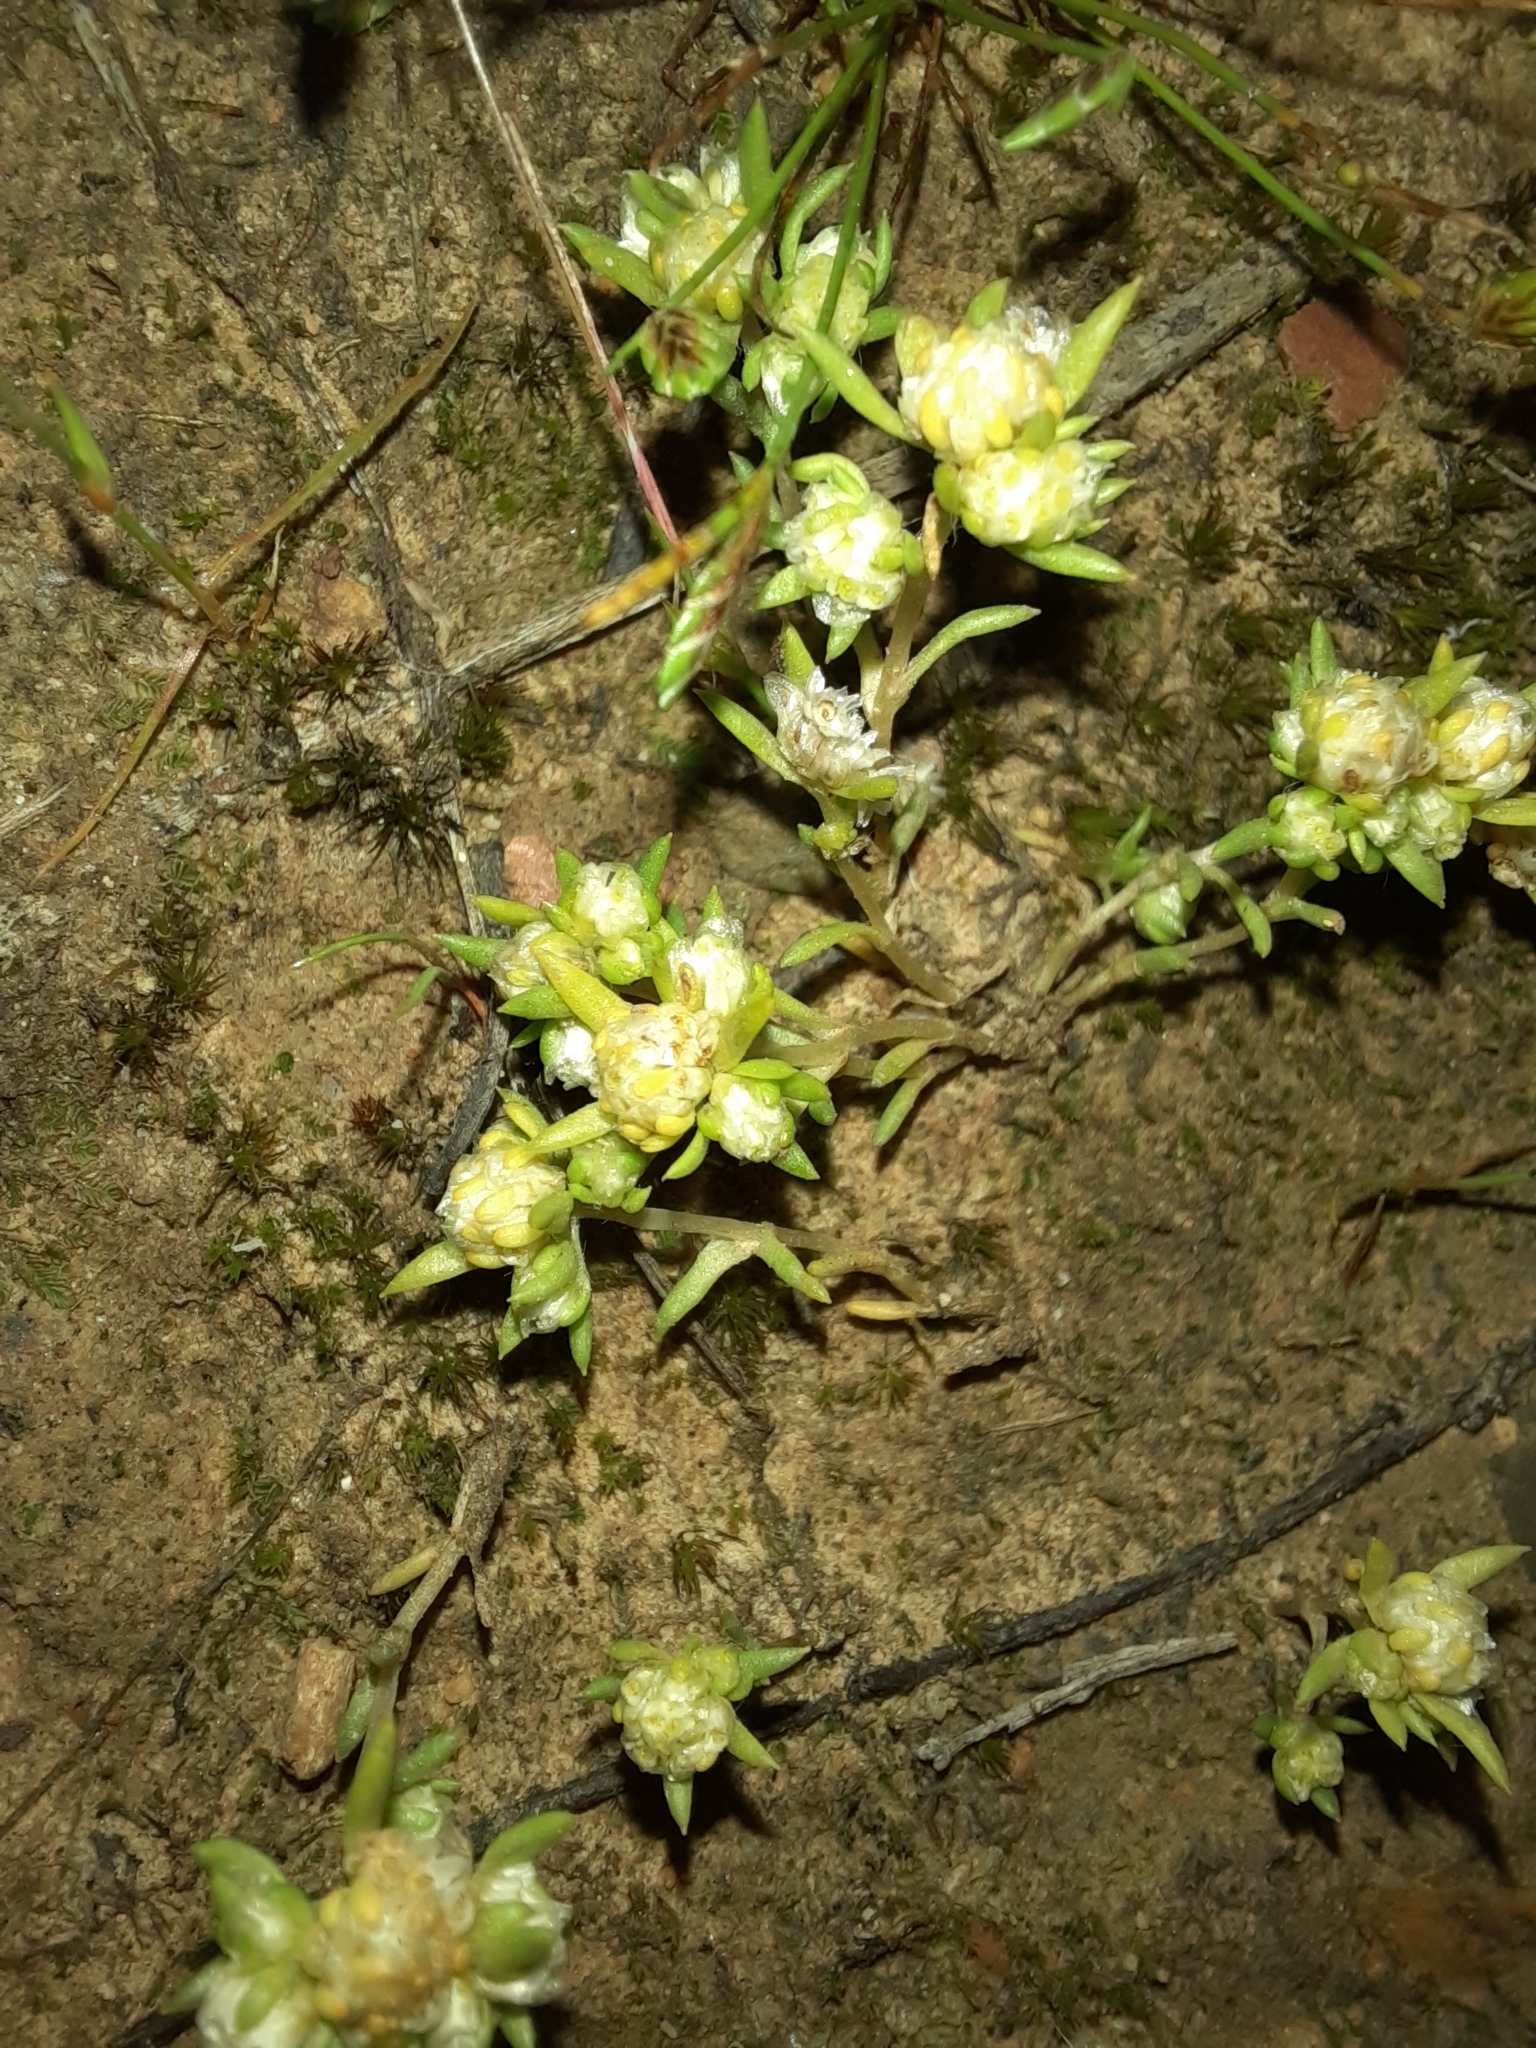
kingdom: Plantae
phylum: Tracheophyta
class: Magnoliopsida
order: Asterales
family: Asteraceae
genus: Siloxerus
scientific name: Siloxerus multiflorus
